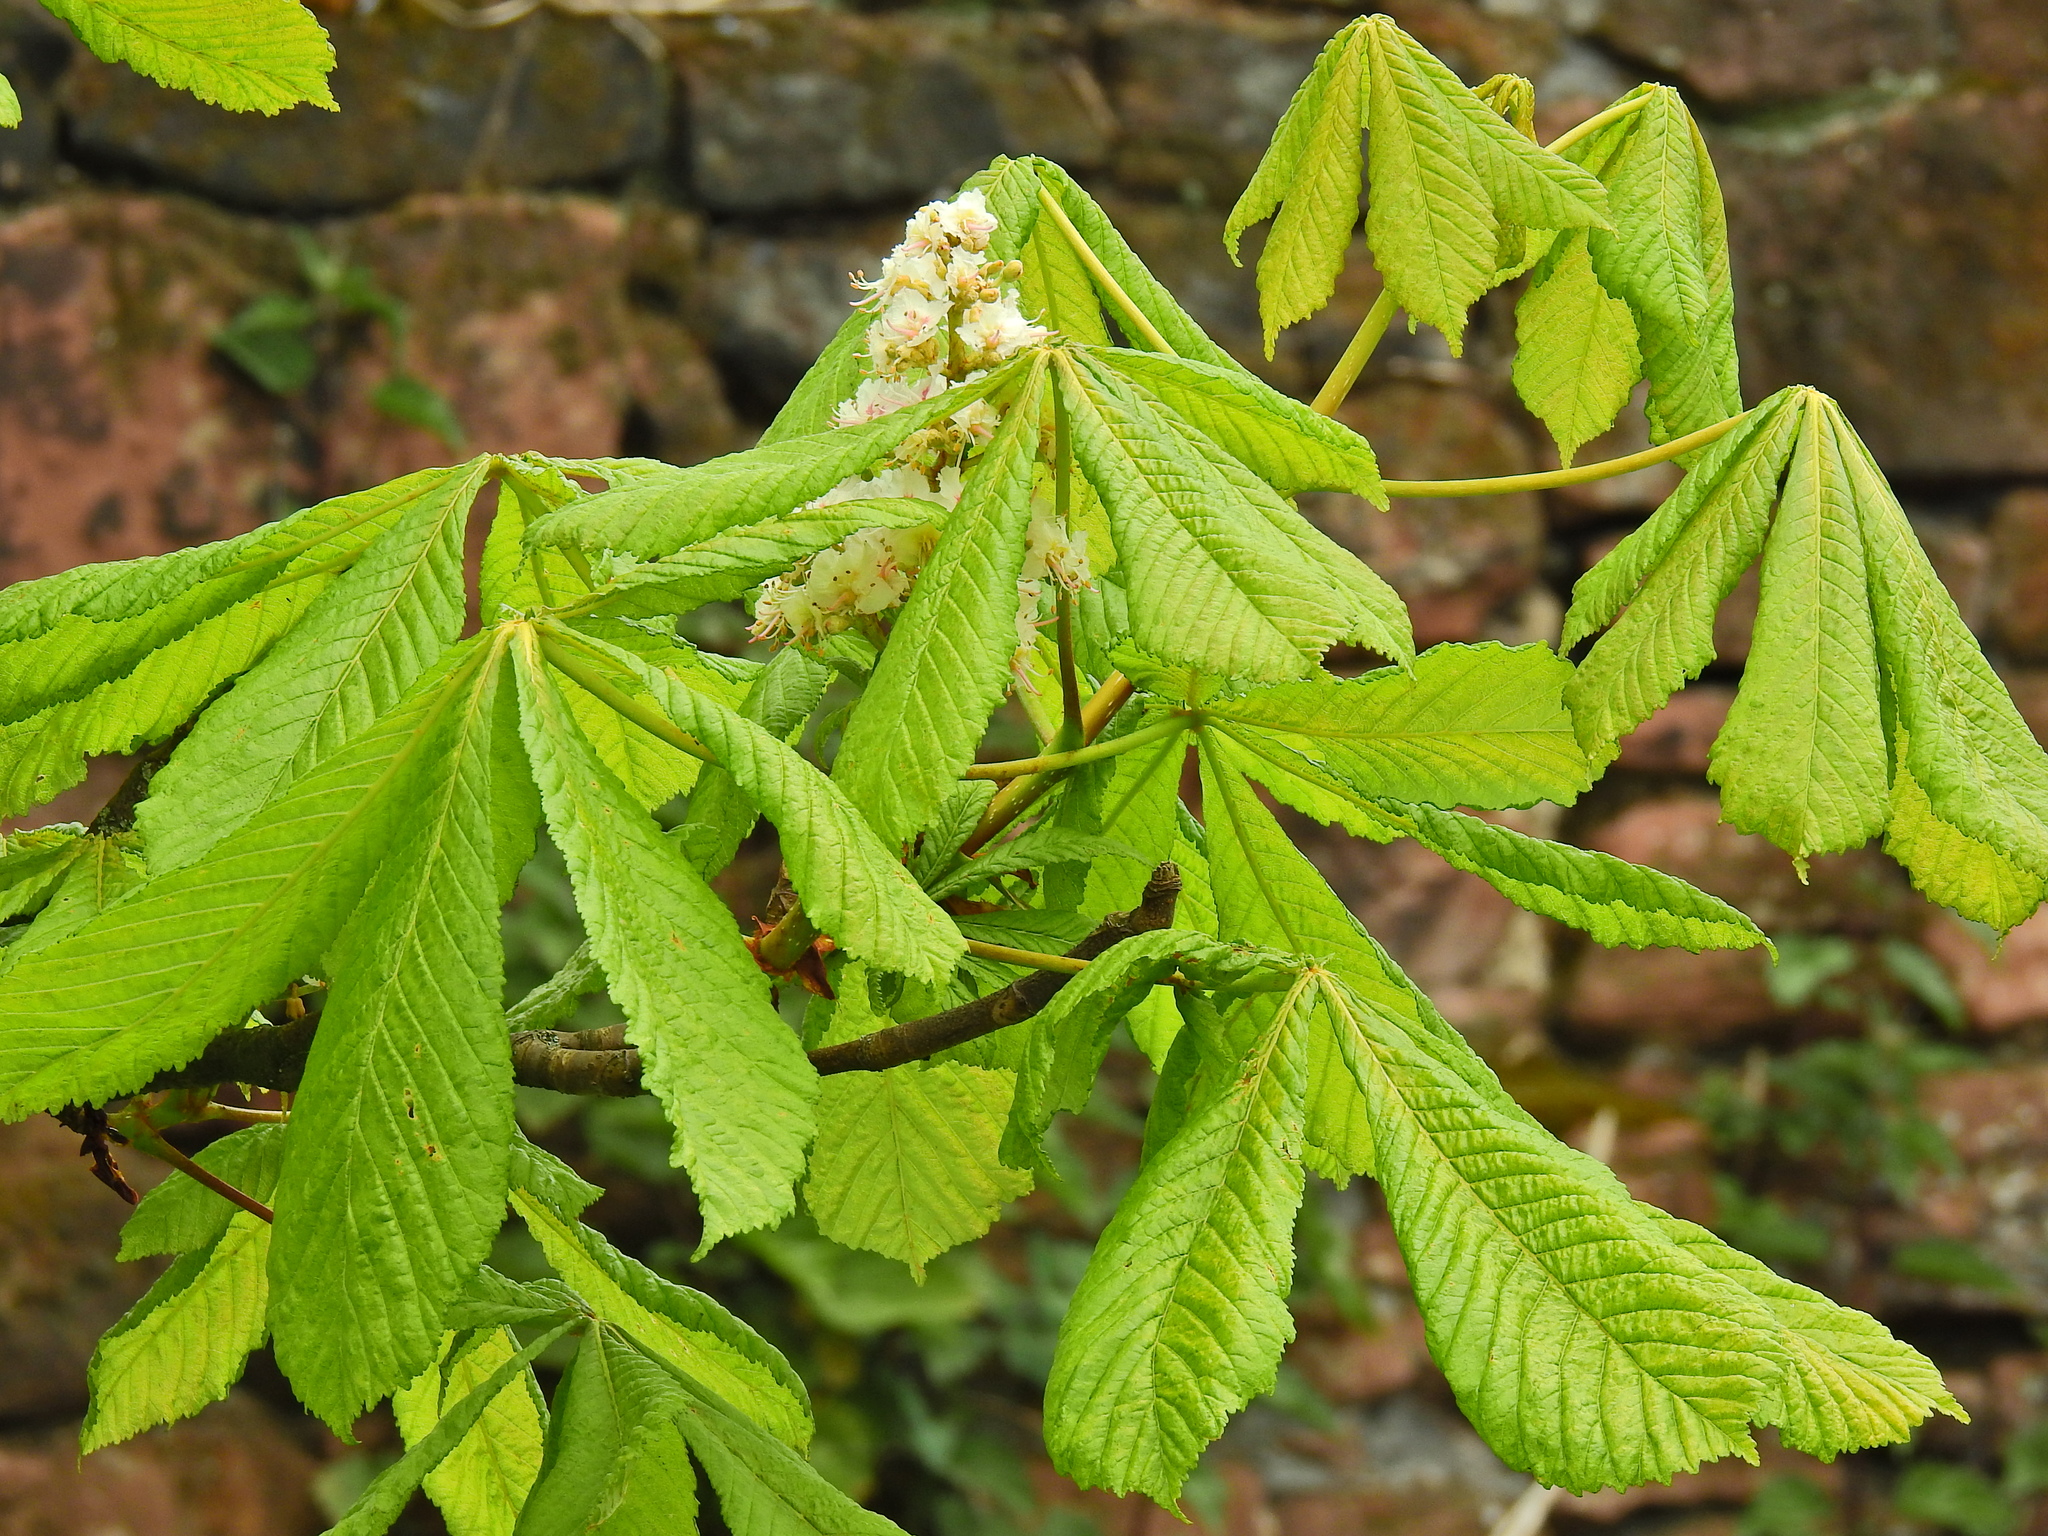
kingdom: Plantae
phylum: Tracheophyta
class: Magnoliopsida
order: Sapindales
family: Sapindaceae
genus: Aesculus
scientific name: Aesculus hippocastanum
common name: Horse-chestnut
